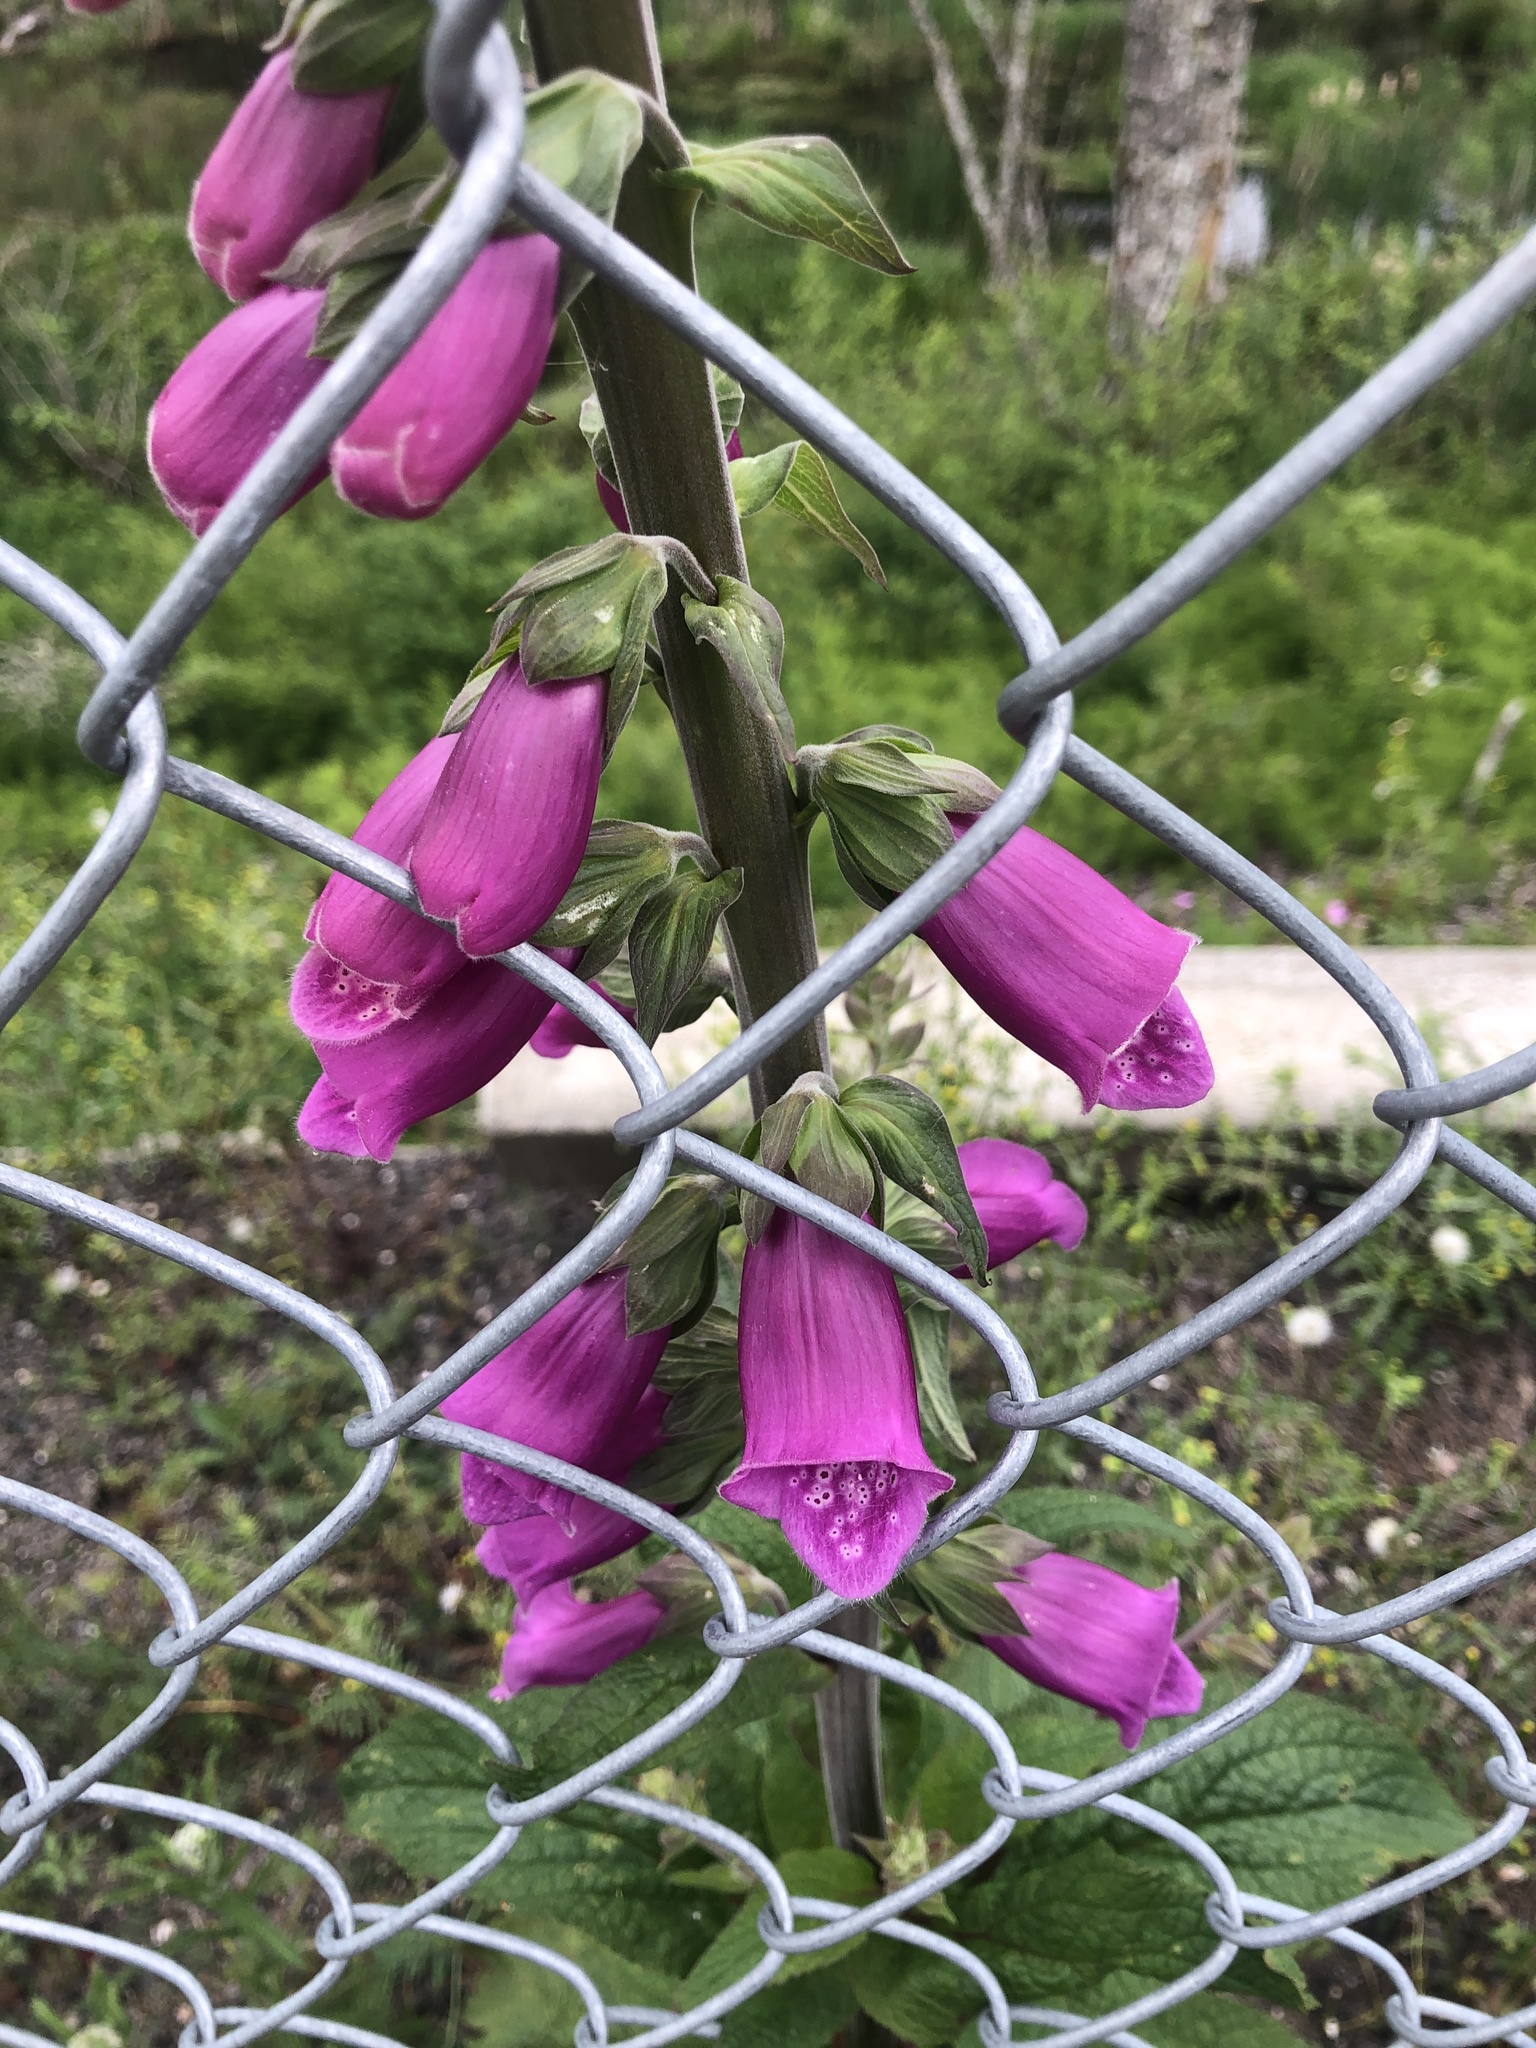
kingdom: Plantae
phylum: Tracheophyta
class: Magnoliopsida
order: Lamiales
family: Plantaginaceae
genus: Digitalis
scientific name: Digitalis purpurea
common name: Foxglove
